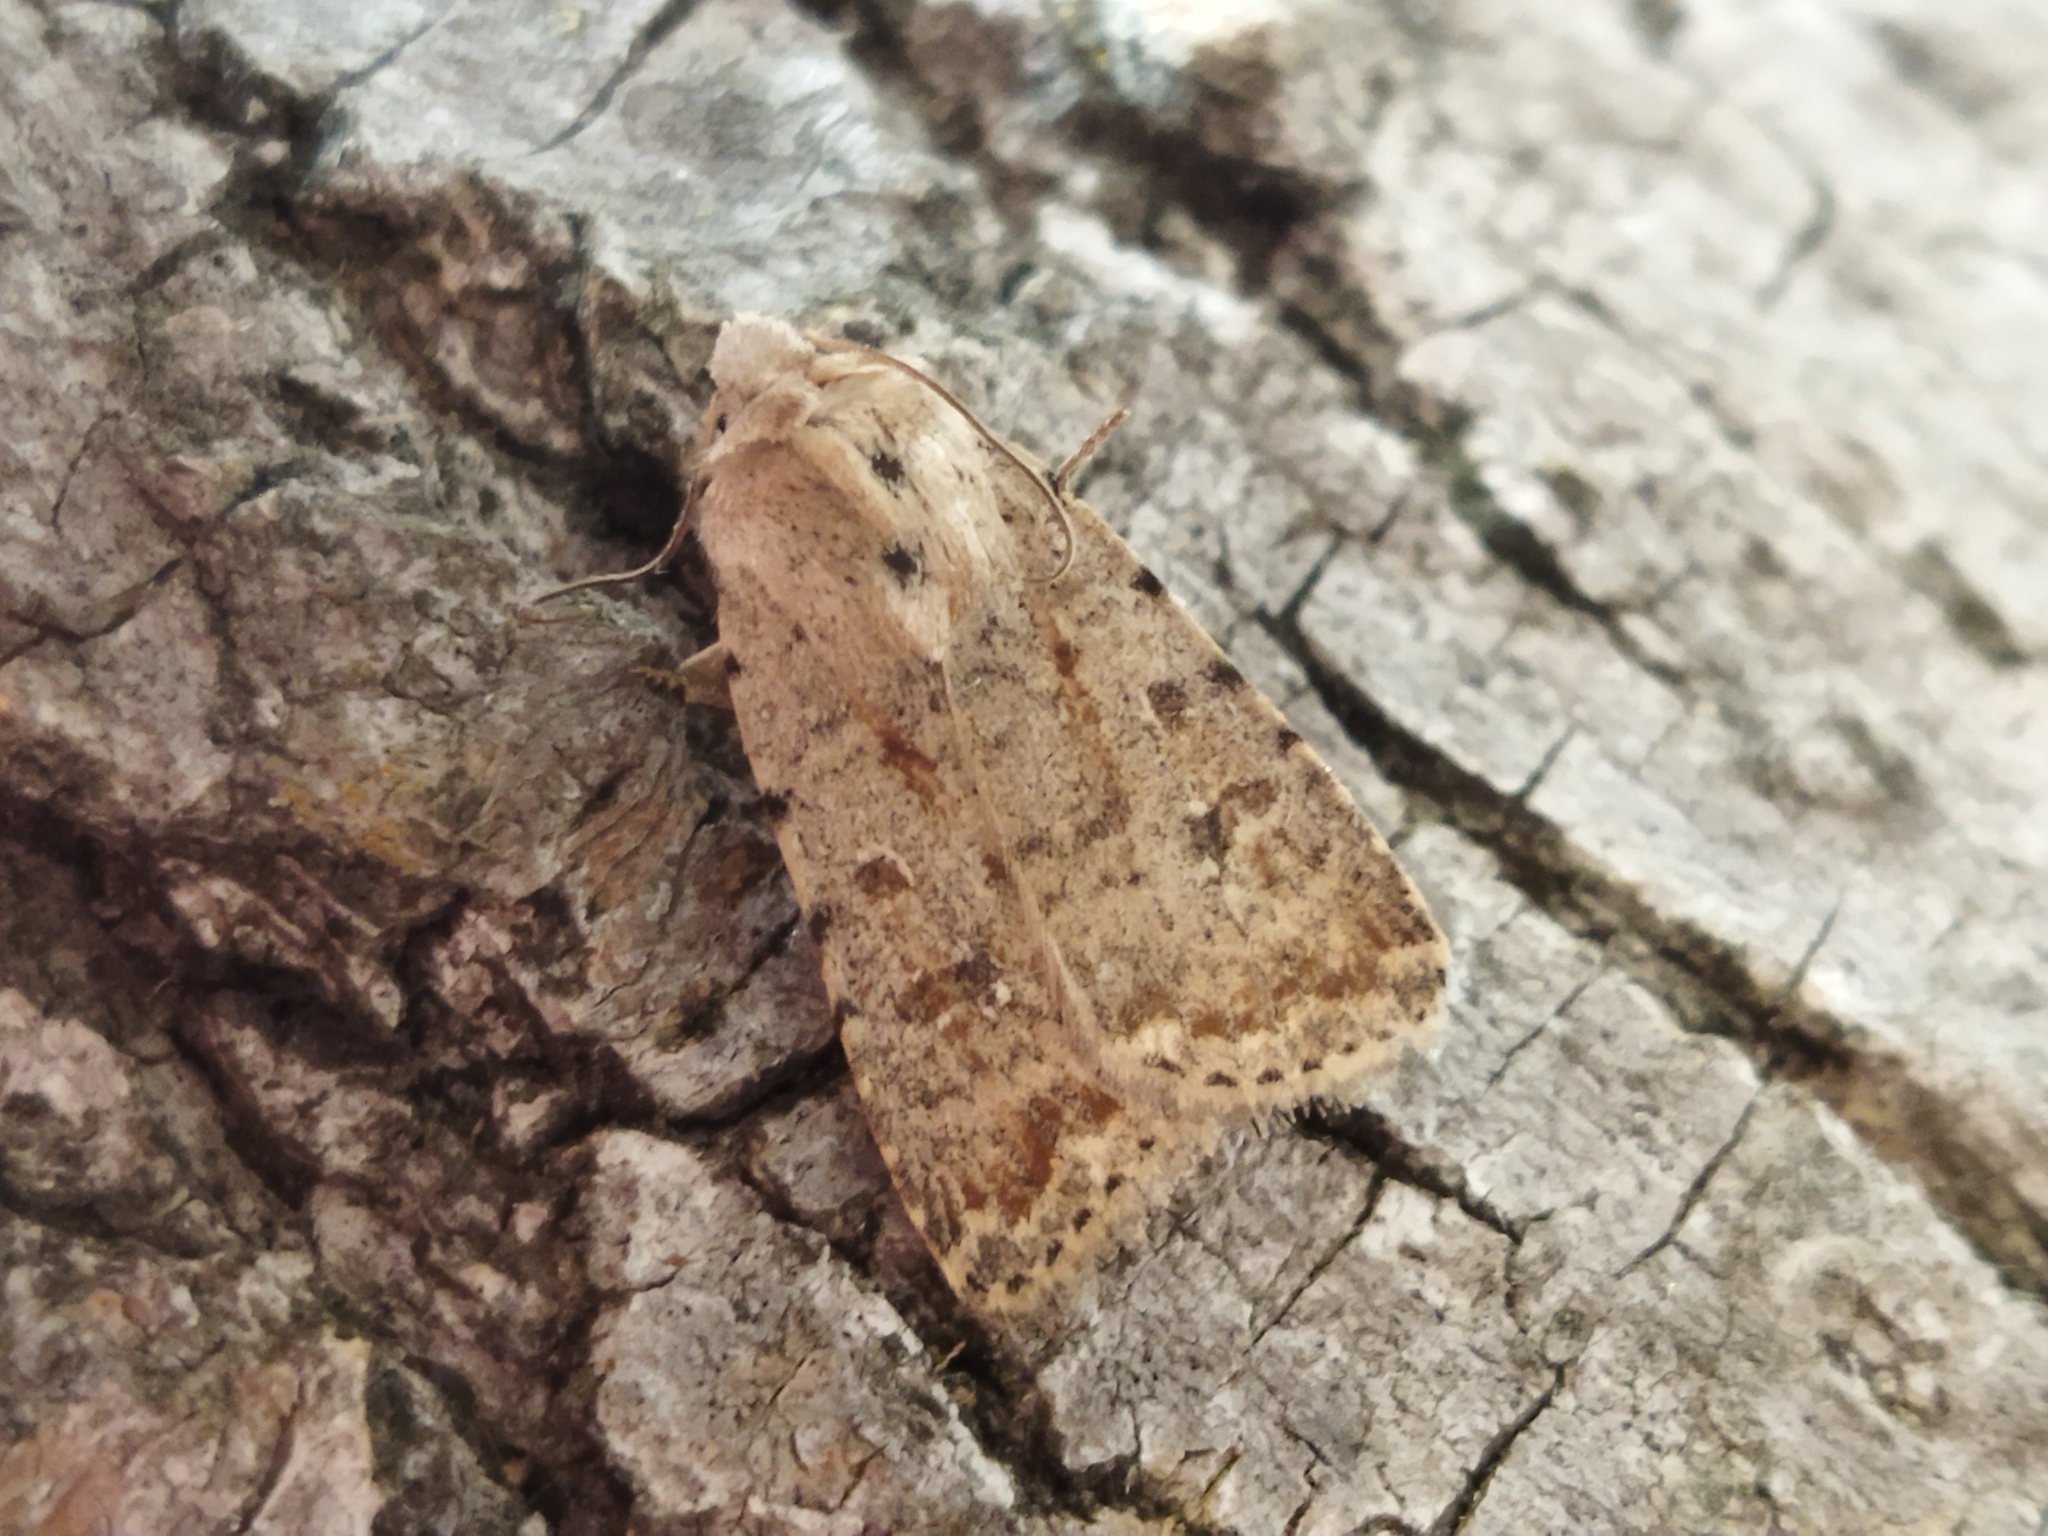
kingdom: Animalia
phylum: Arthropoda
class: Insecta
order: Lepidoptera
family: Noctuidae
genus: Caradrina
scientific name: Caradrina clavipalpis
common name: Pale mottled willow
